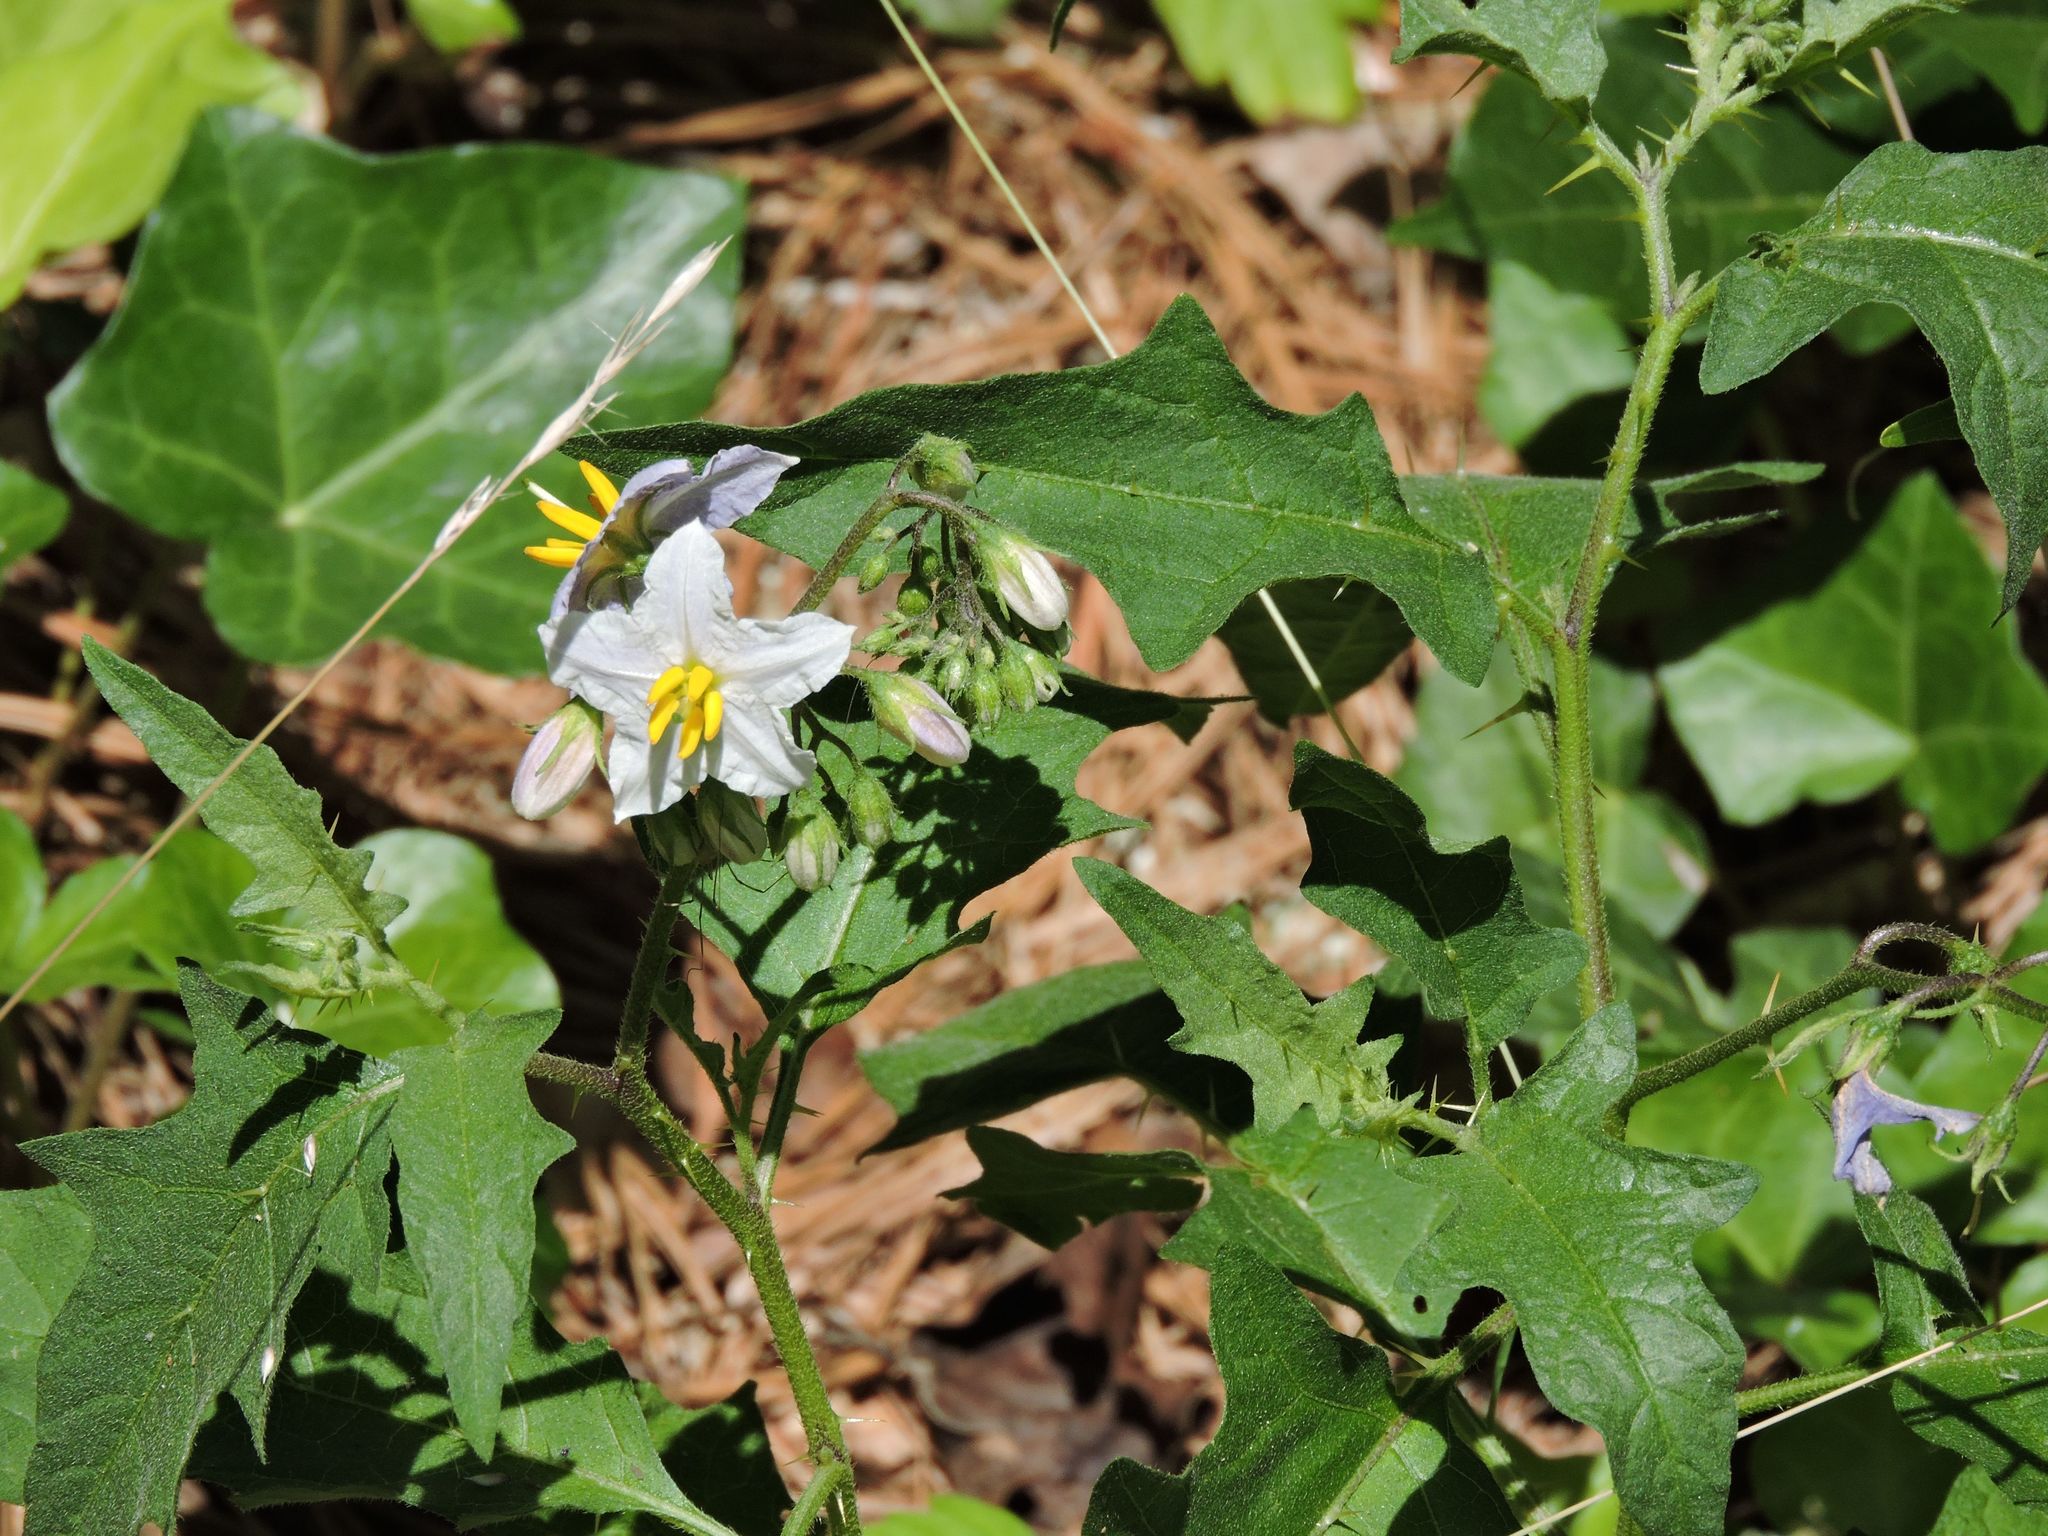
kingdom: Plantae
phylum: Tracheophyta
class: Magnoliopsida
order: Solanales
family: Solanaceae
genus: Solanum
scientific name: Solanum carolinense
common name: Horse-nettle
